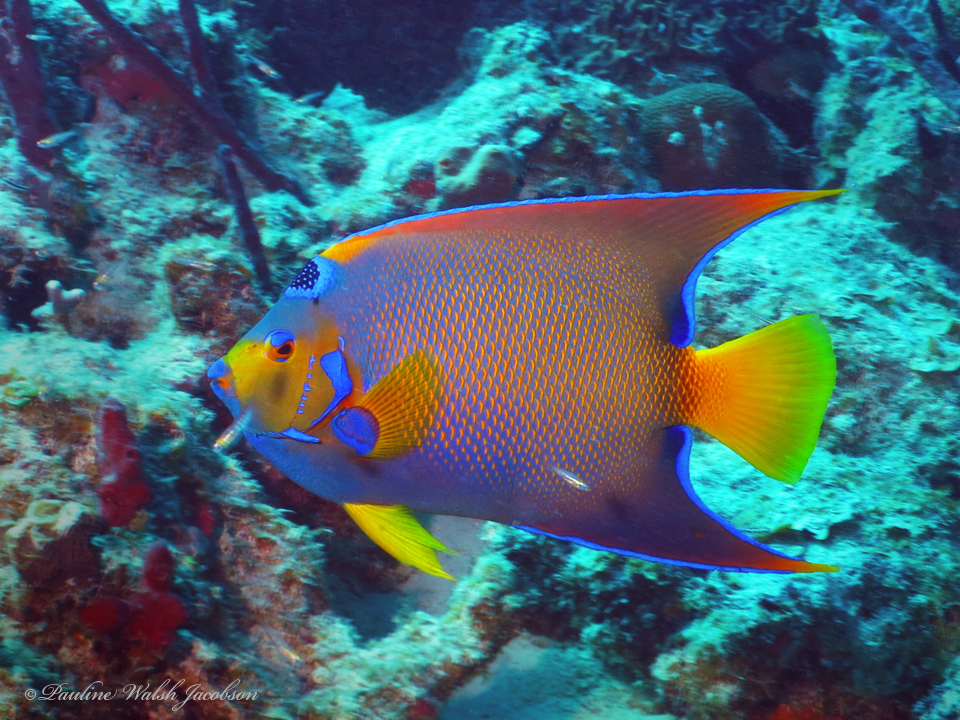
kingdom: Animalia
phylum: Chordata
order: Perciformes
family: Pomacanthidae
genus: Holacanthus
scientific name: Holacanthus ciliaris
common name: Queen angelfish
